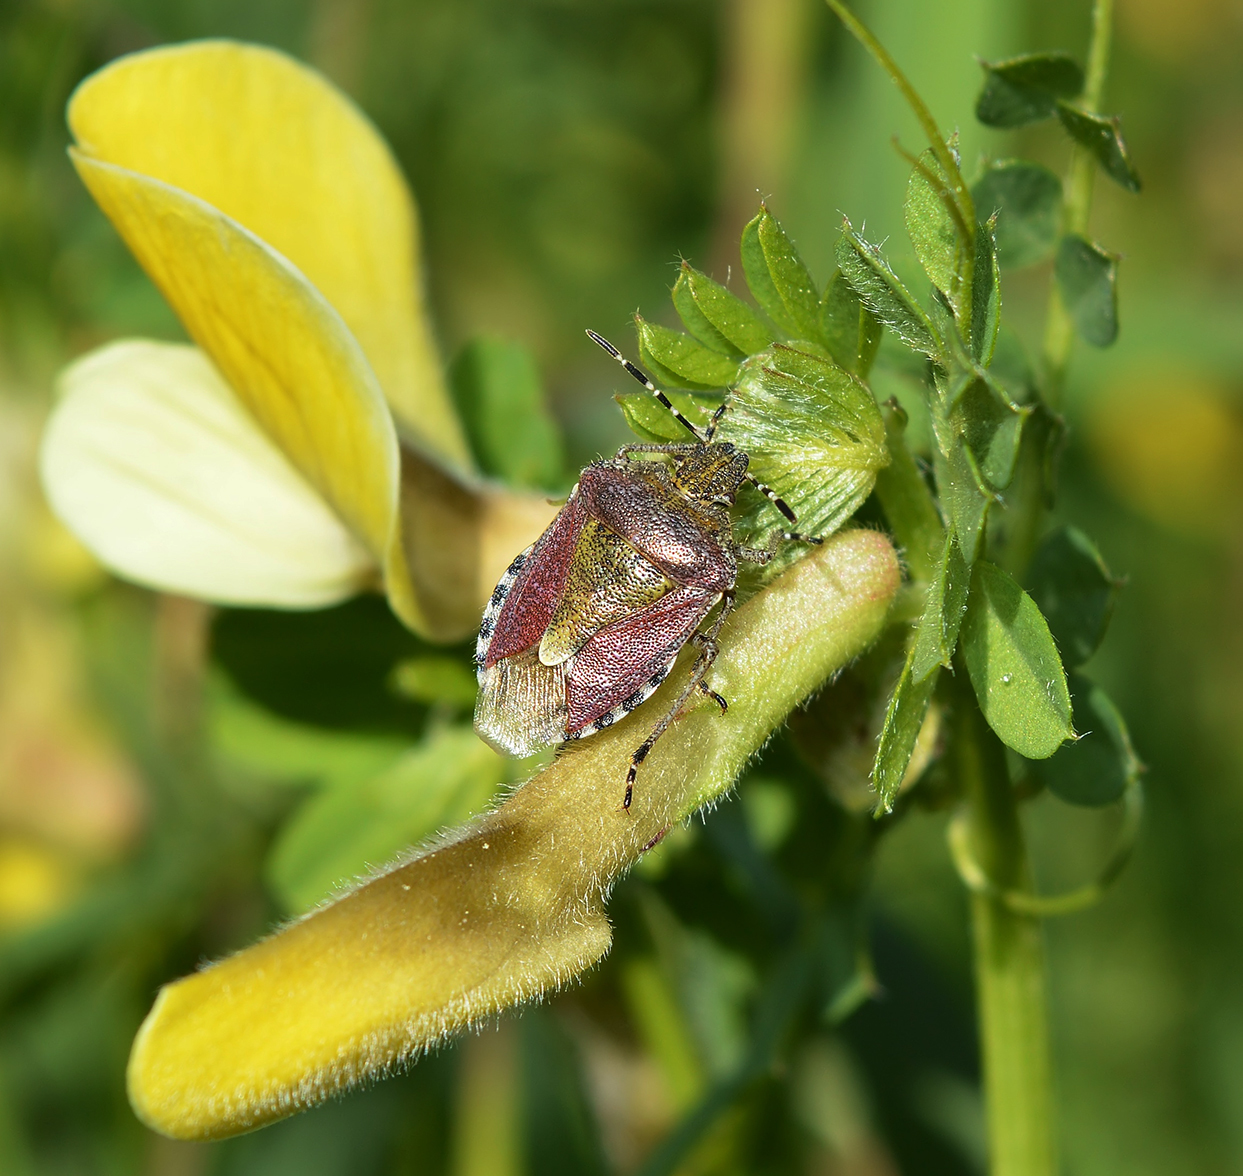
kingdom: Animalia
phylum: Arthropoda
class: Insecta
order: Hemiptera
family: Pentatomidae
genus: Dolycoris
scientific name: Dolycoris baccarum
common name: Sloe bug
